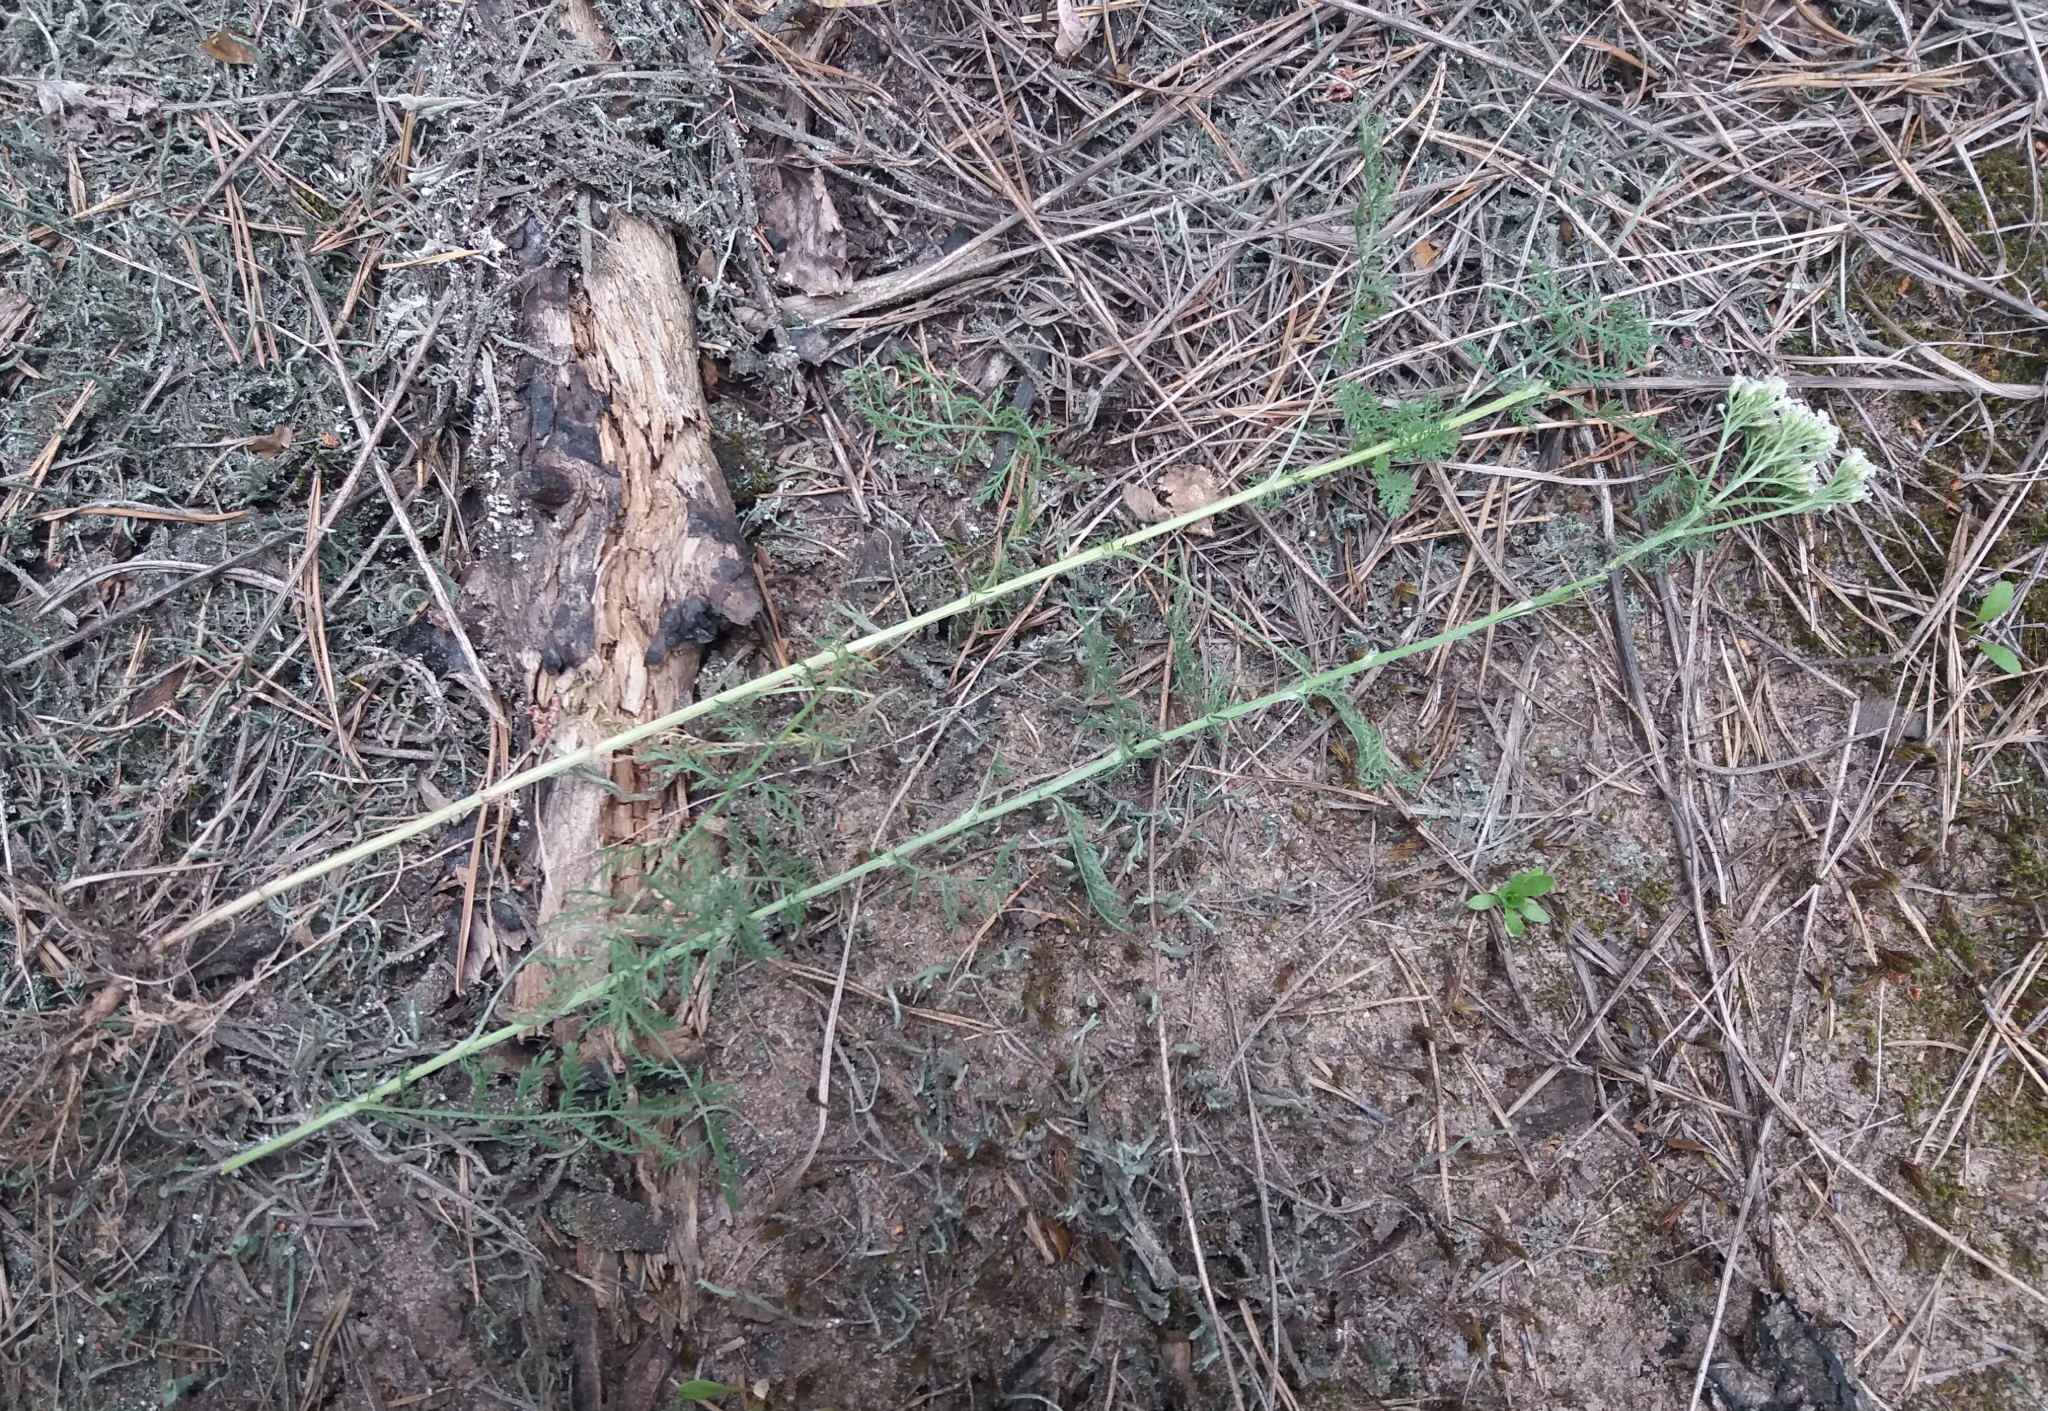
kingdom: Plantae
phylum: Tracheophyta
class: Magnoliopsida
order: Asterales
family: Asteraceae
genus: Achillea
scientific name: Achillea nobilis
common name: Noble yarrow
